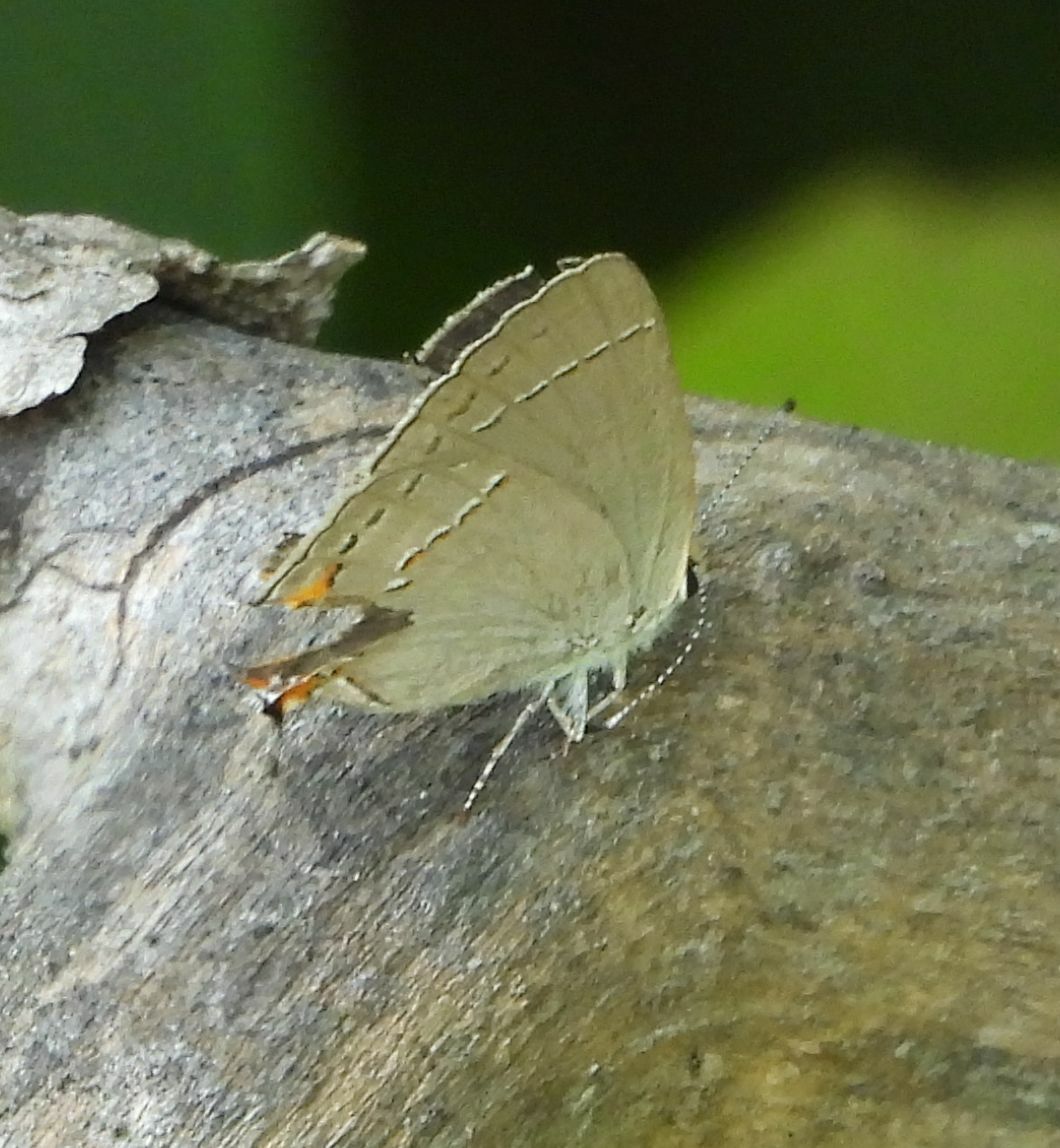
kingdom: Animalia
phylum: Arthropoda
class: Insecta
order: Lepidoptera
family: Lycaenidae
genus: Strymon
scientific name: Strymon melinus
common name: Gray hairstreak
